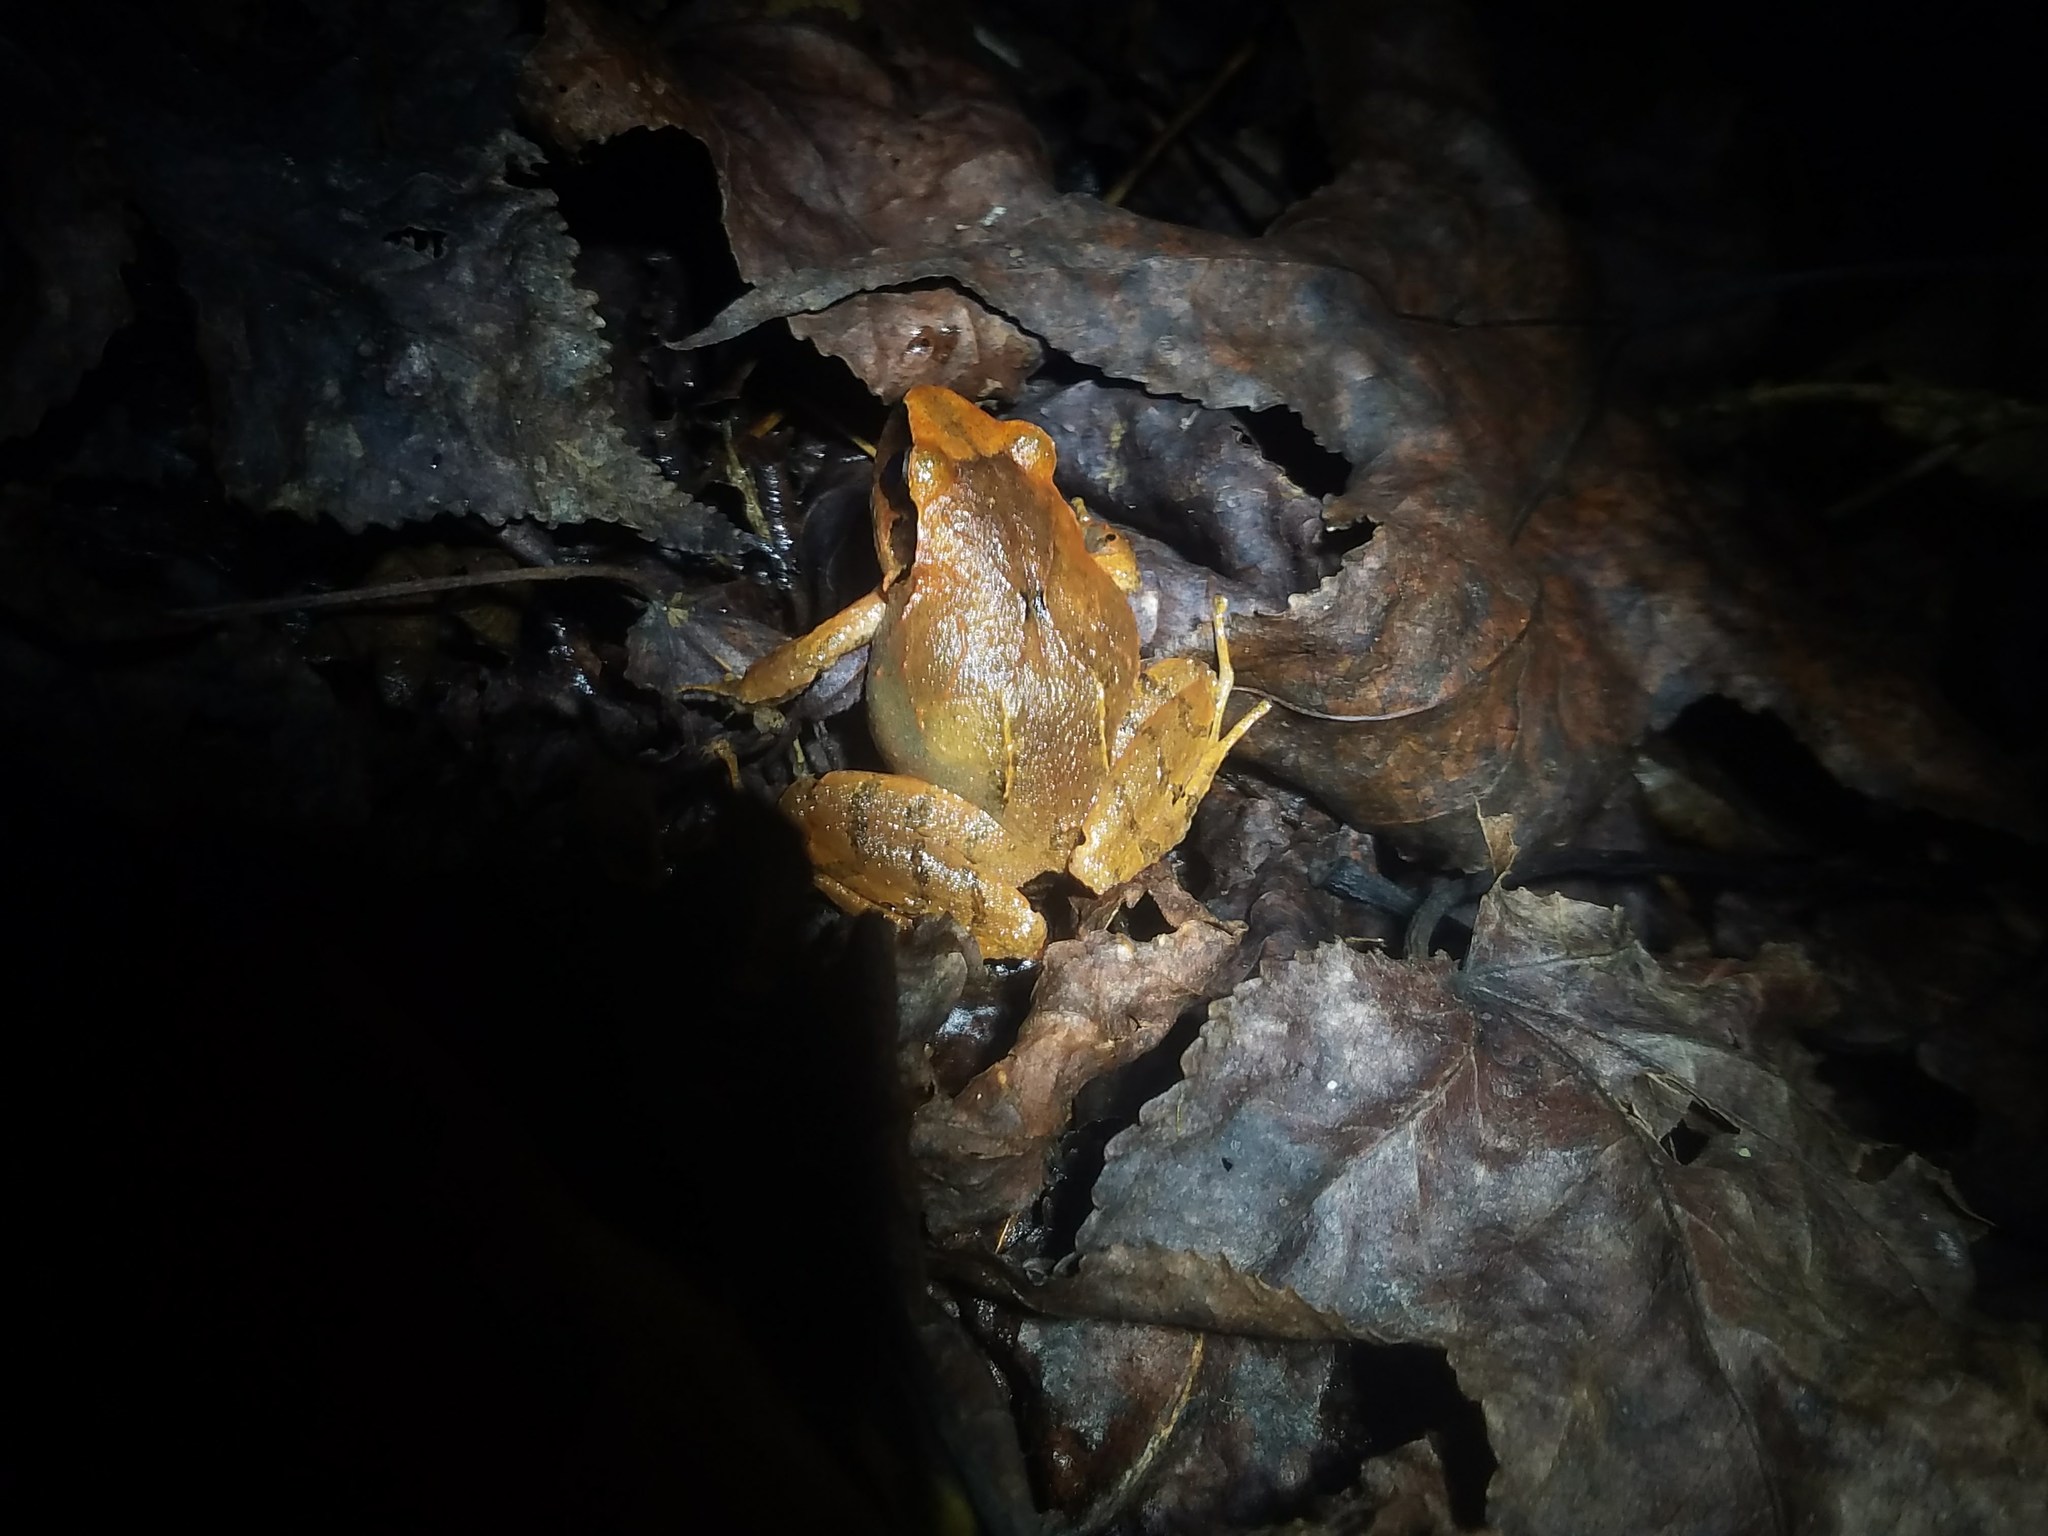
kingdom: Animalia
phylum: Chordata
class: Amphibia
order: Anura
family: Craugastoridae
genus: Craugastor
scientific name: Craugastor loki
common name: Common leaf-litter frog
